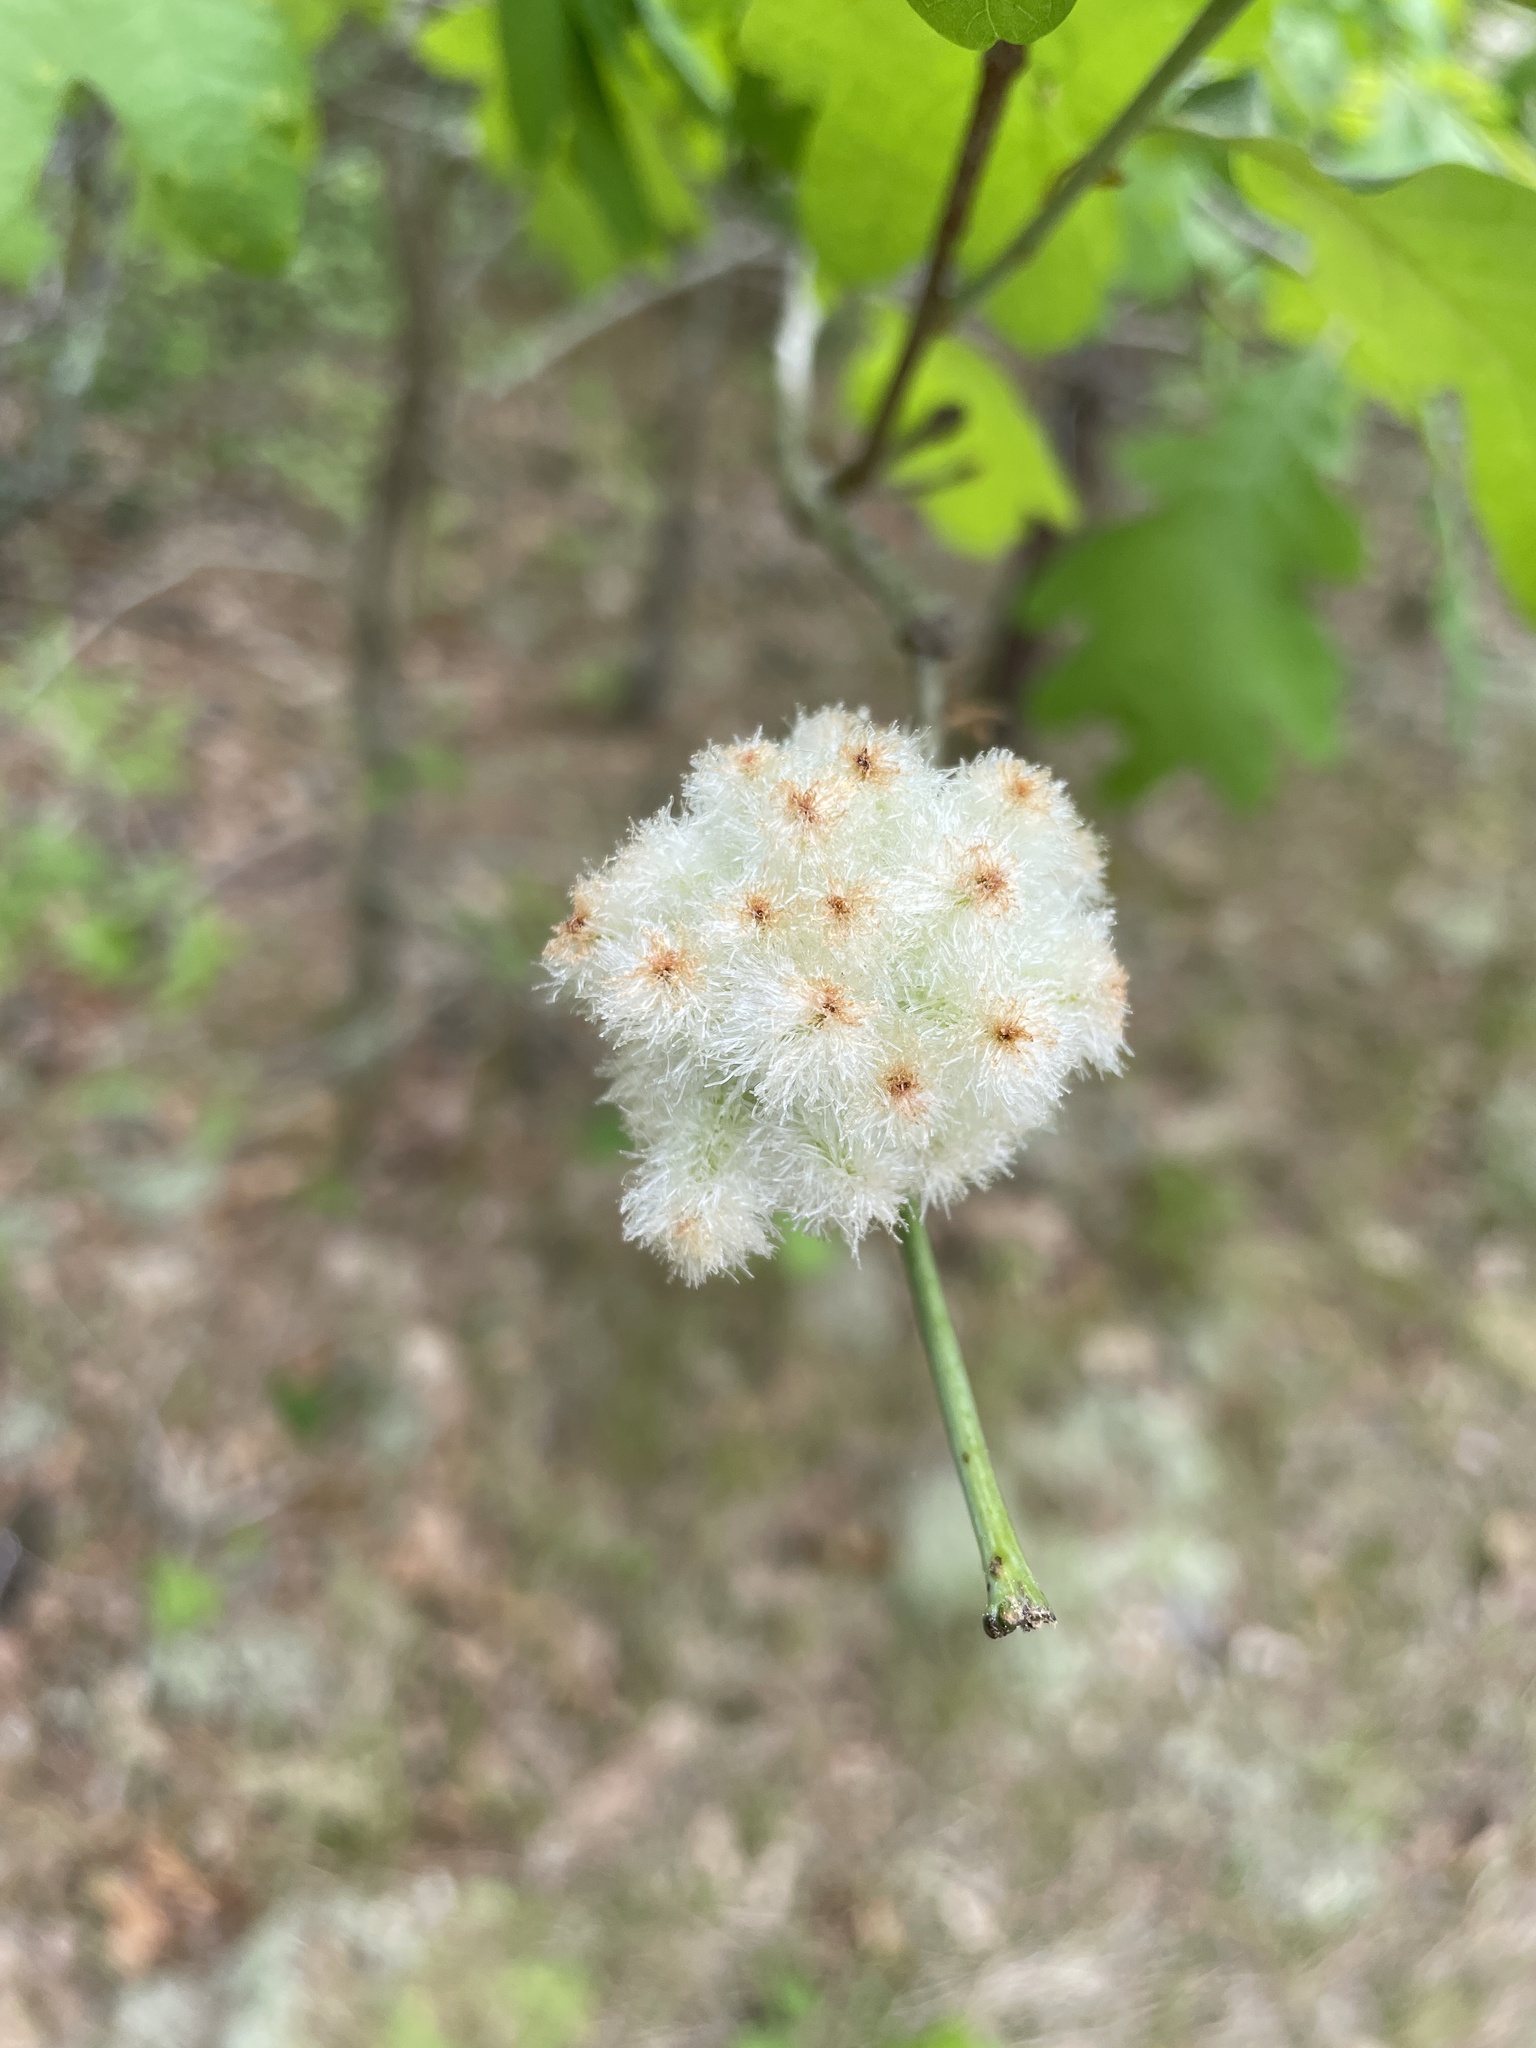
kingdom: Animalia
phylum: Arthropoda
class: Insecta
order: Hymenoptera
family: Cynipidae
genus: Callirhytis
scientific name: Callirhytis
